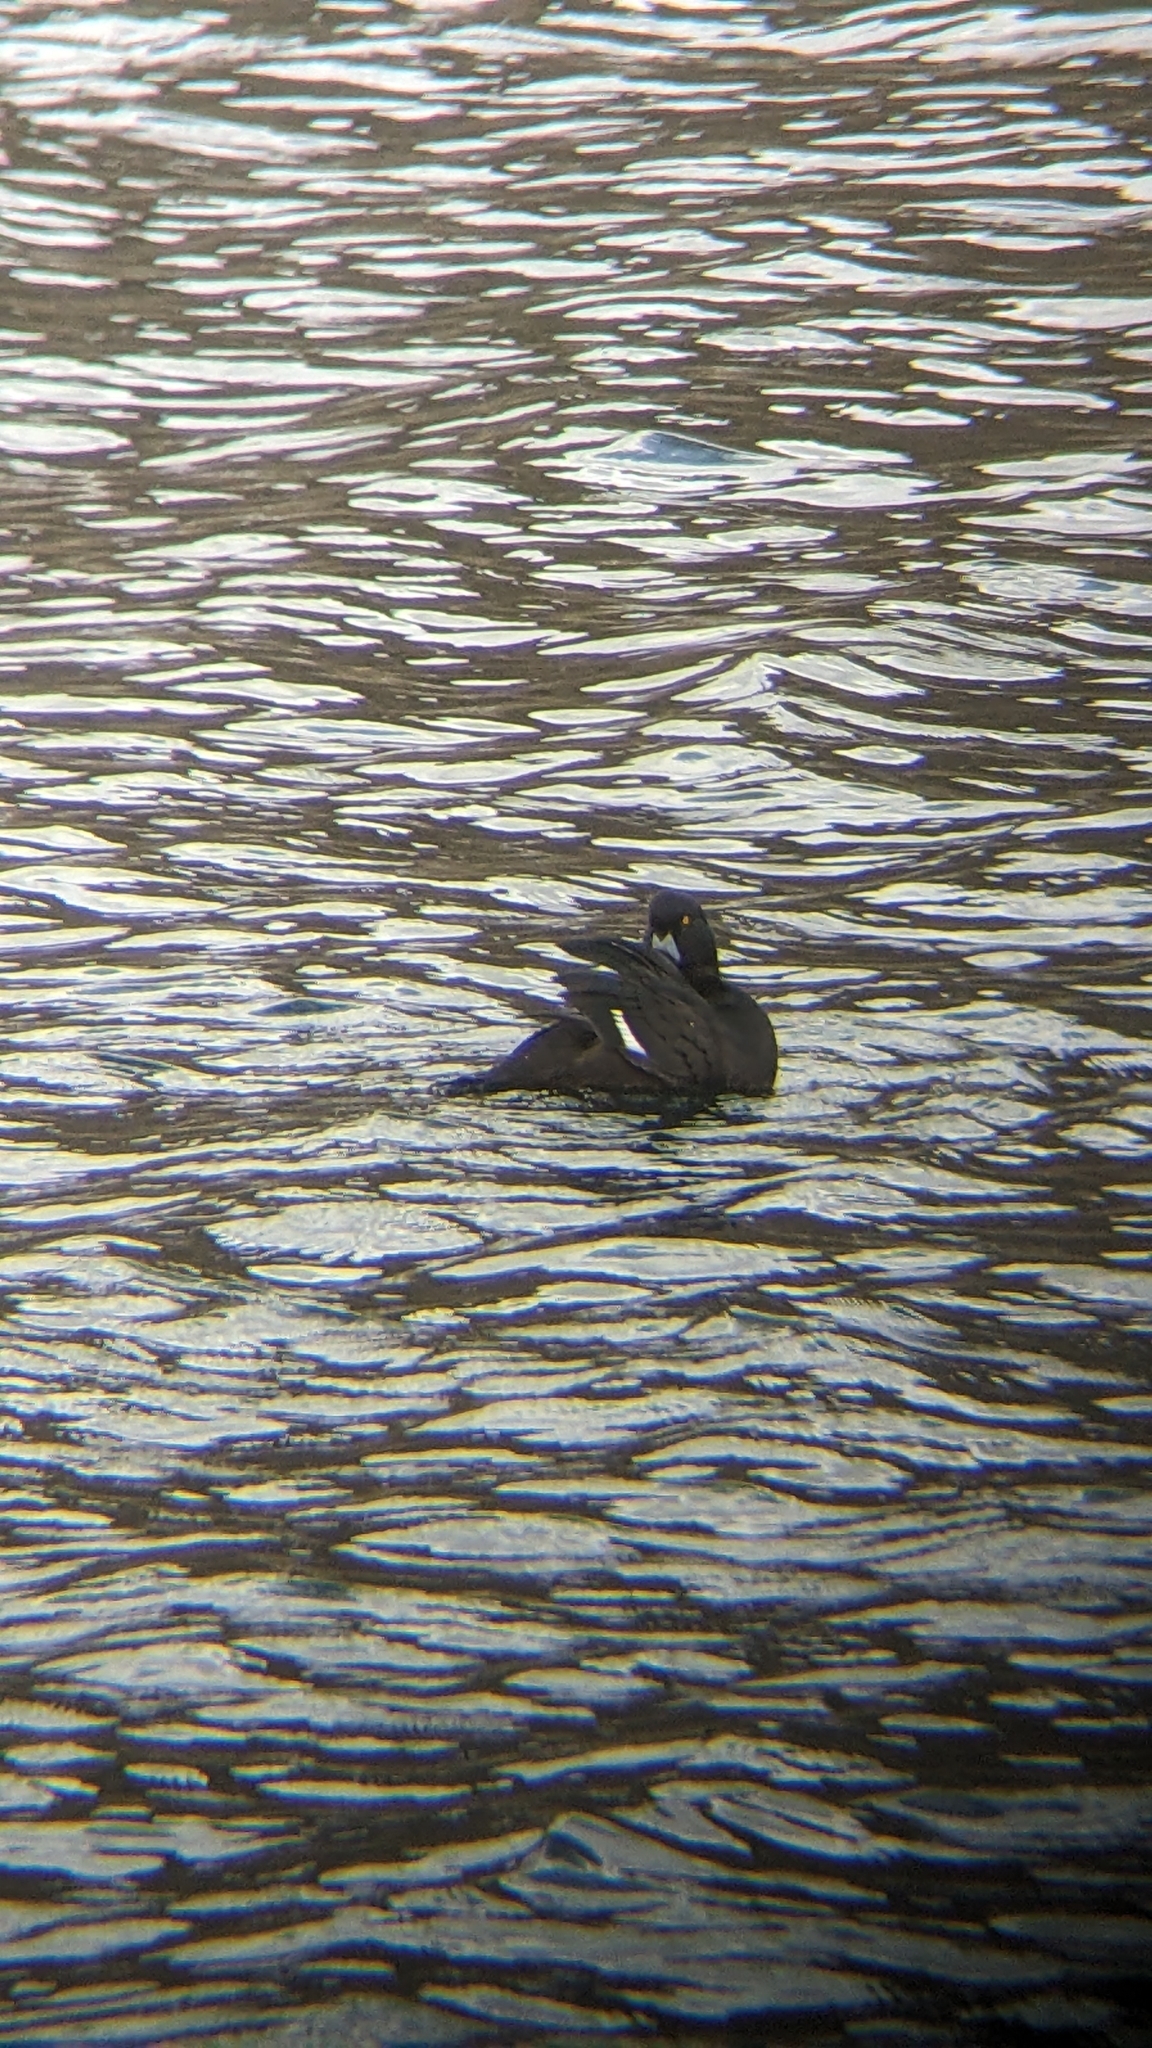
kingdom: Animalia
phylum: Chordata
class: Aves
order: Anseriformes
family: Anatidae
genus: Aythya
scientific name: Aythya novaeseelandiae
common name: New zealand scaup
